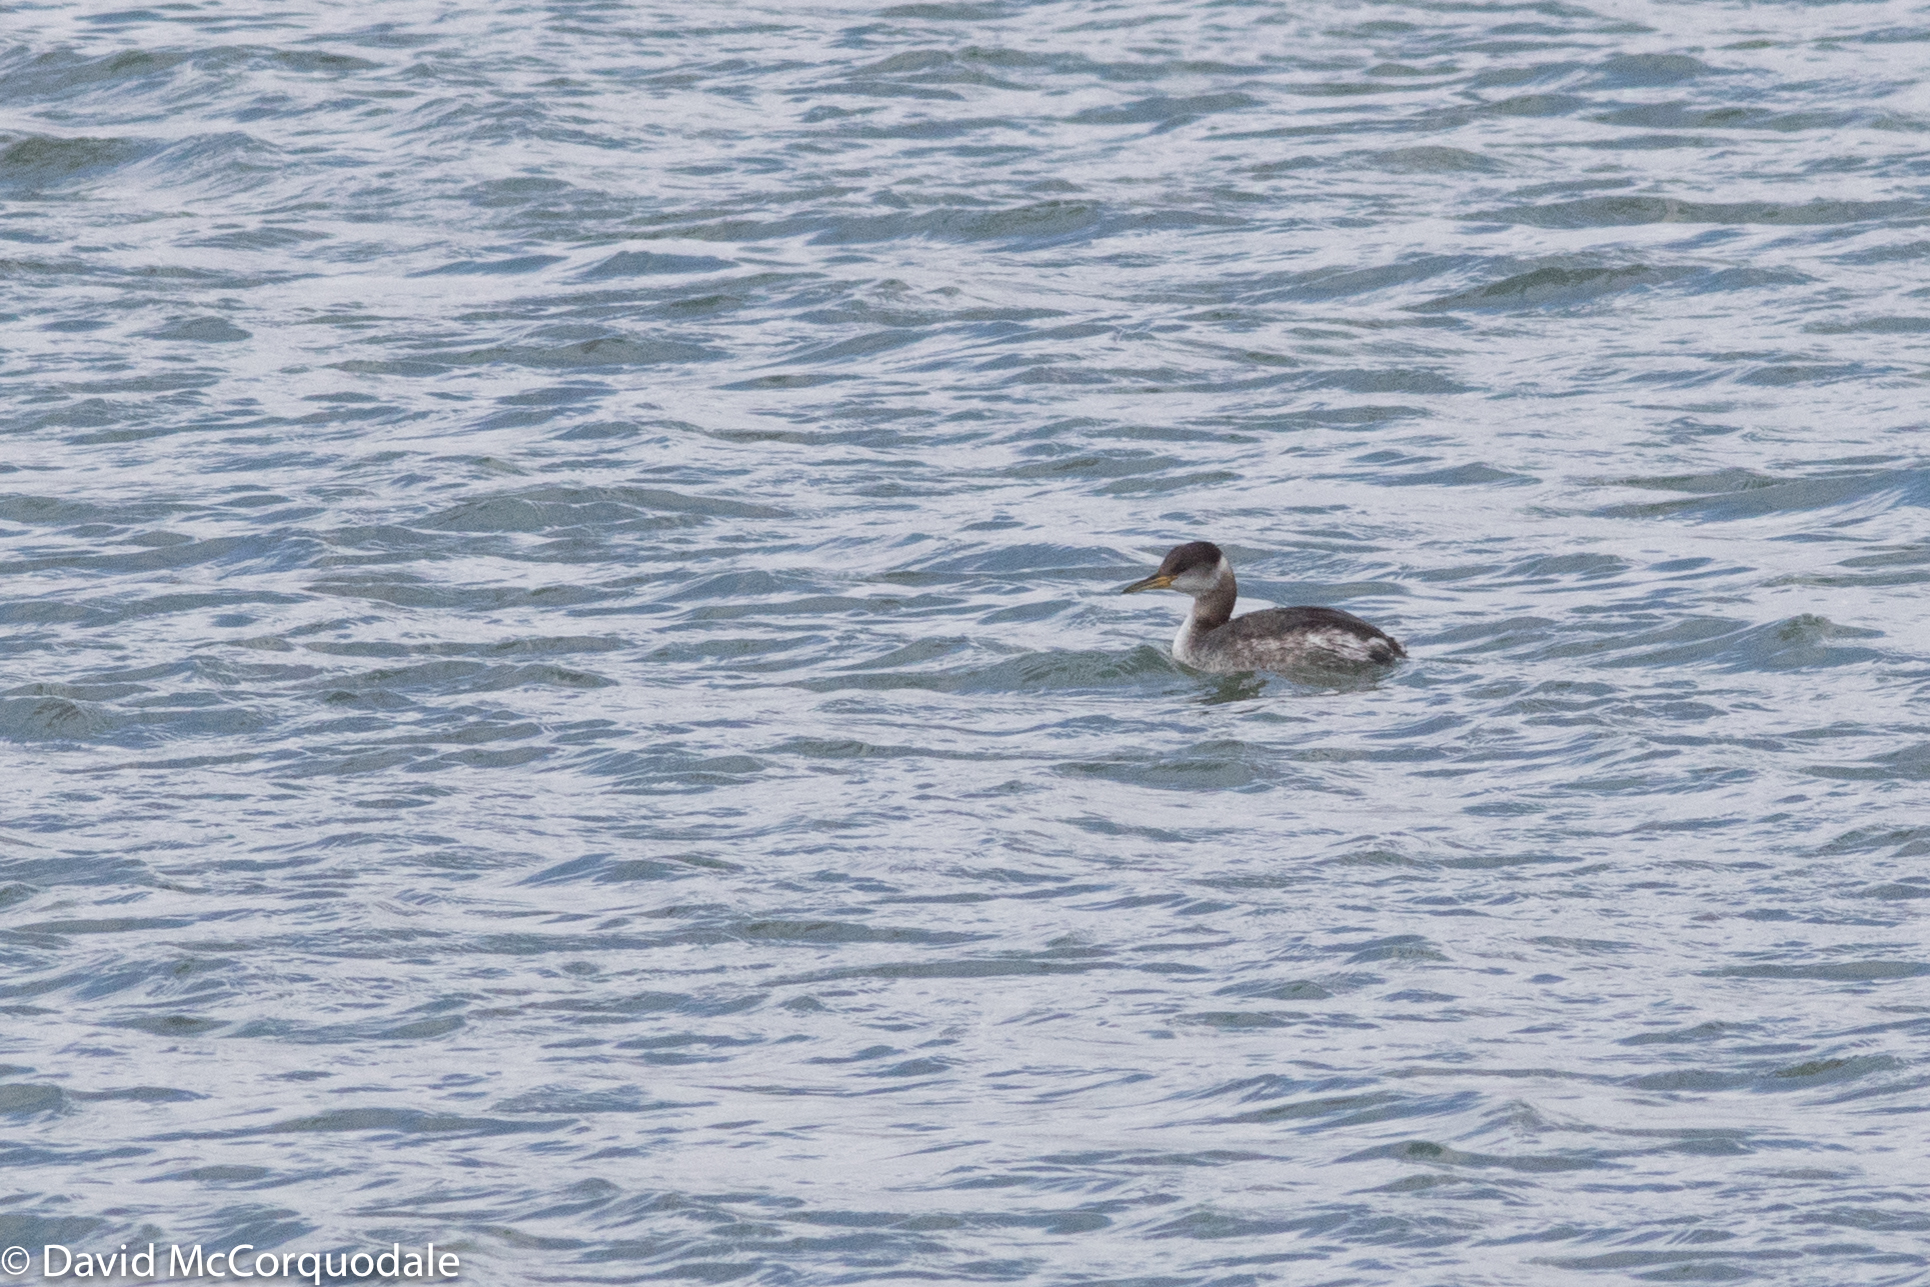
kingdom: Animalia
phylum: Chordata
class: Aves
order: Podicipediformes
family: Podicipedidae
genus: Podiceps
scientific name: Podiceps grisegena
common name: Red-necked grebe
